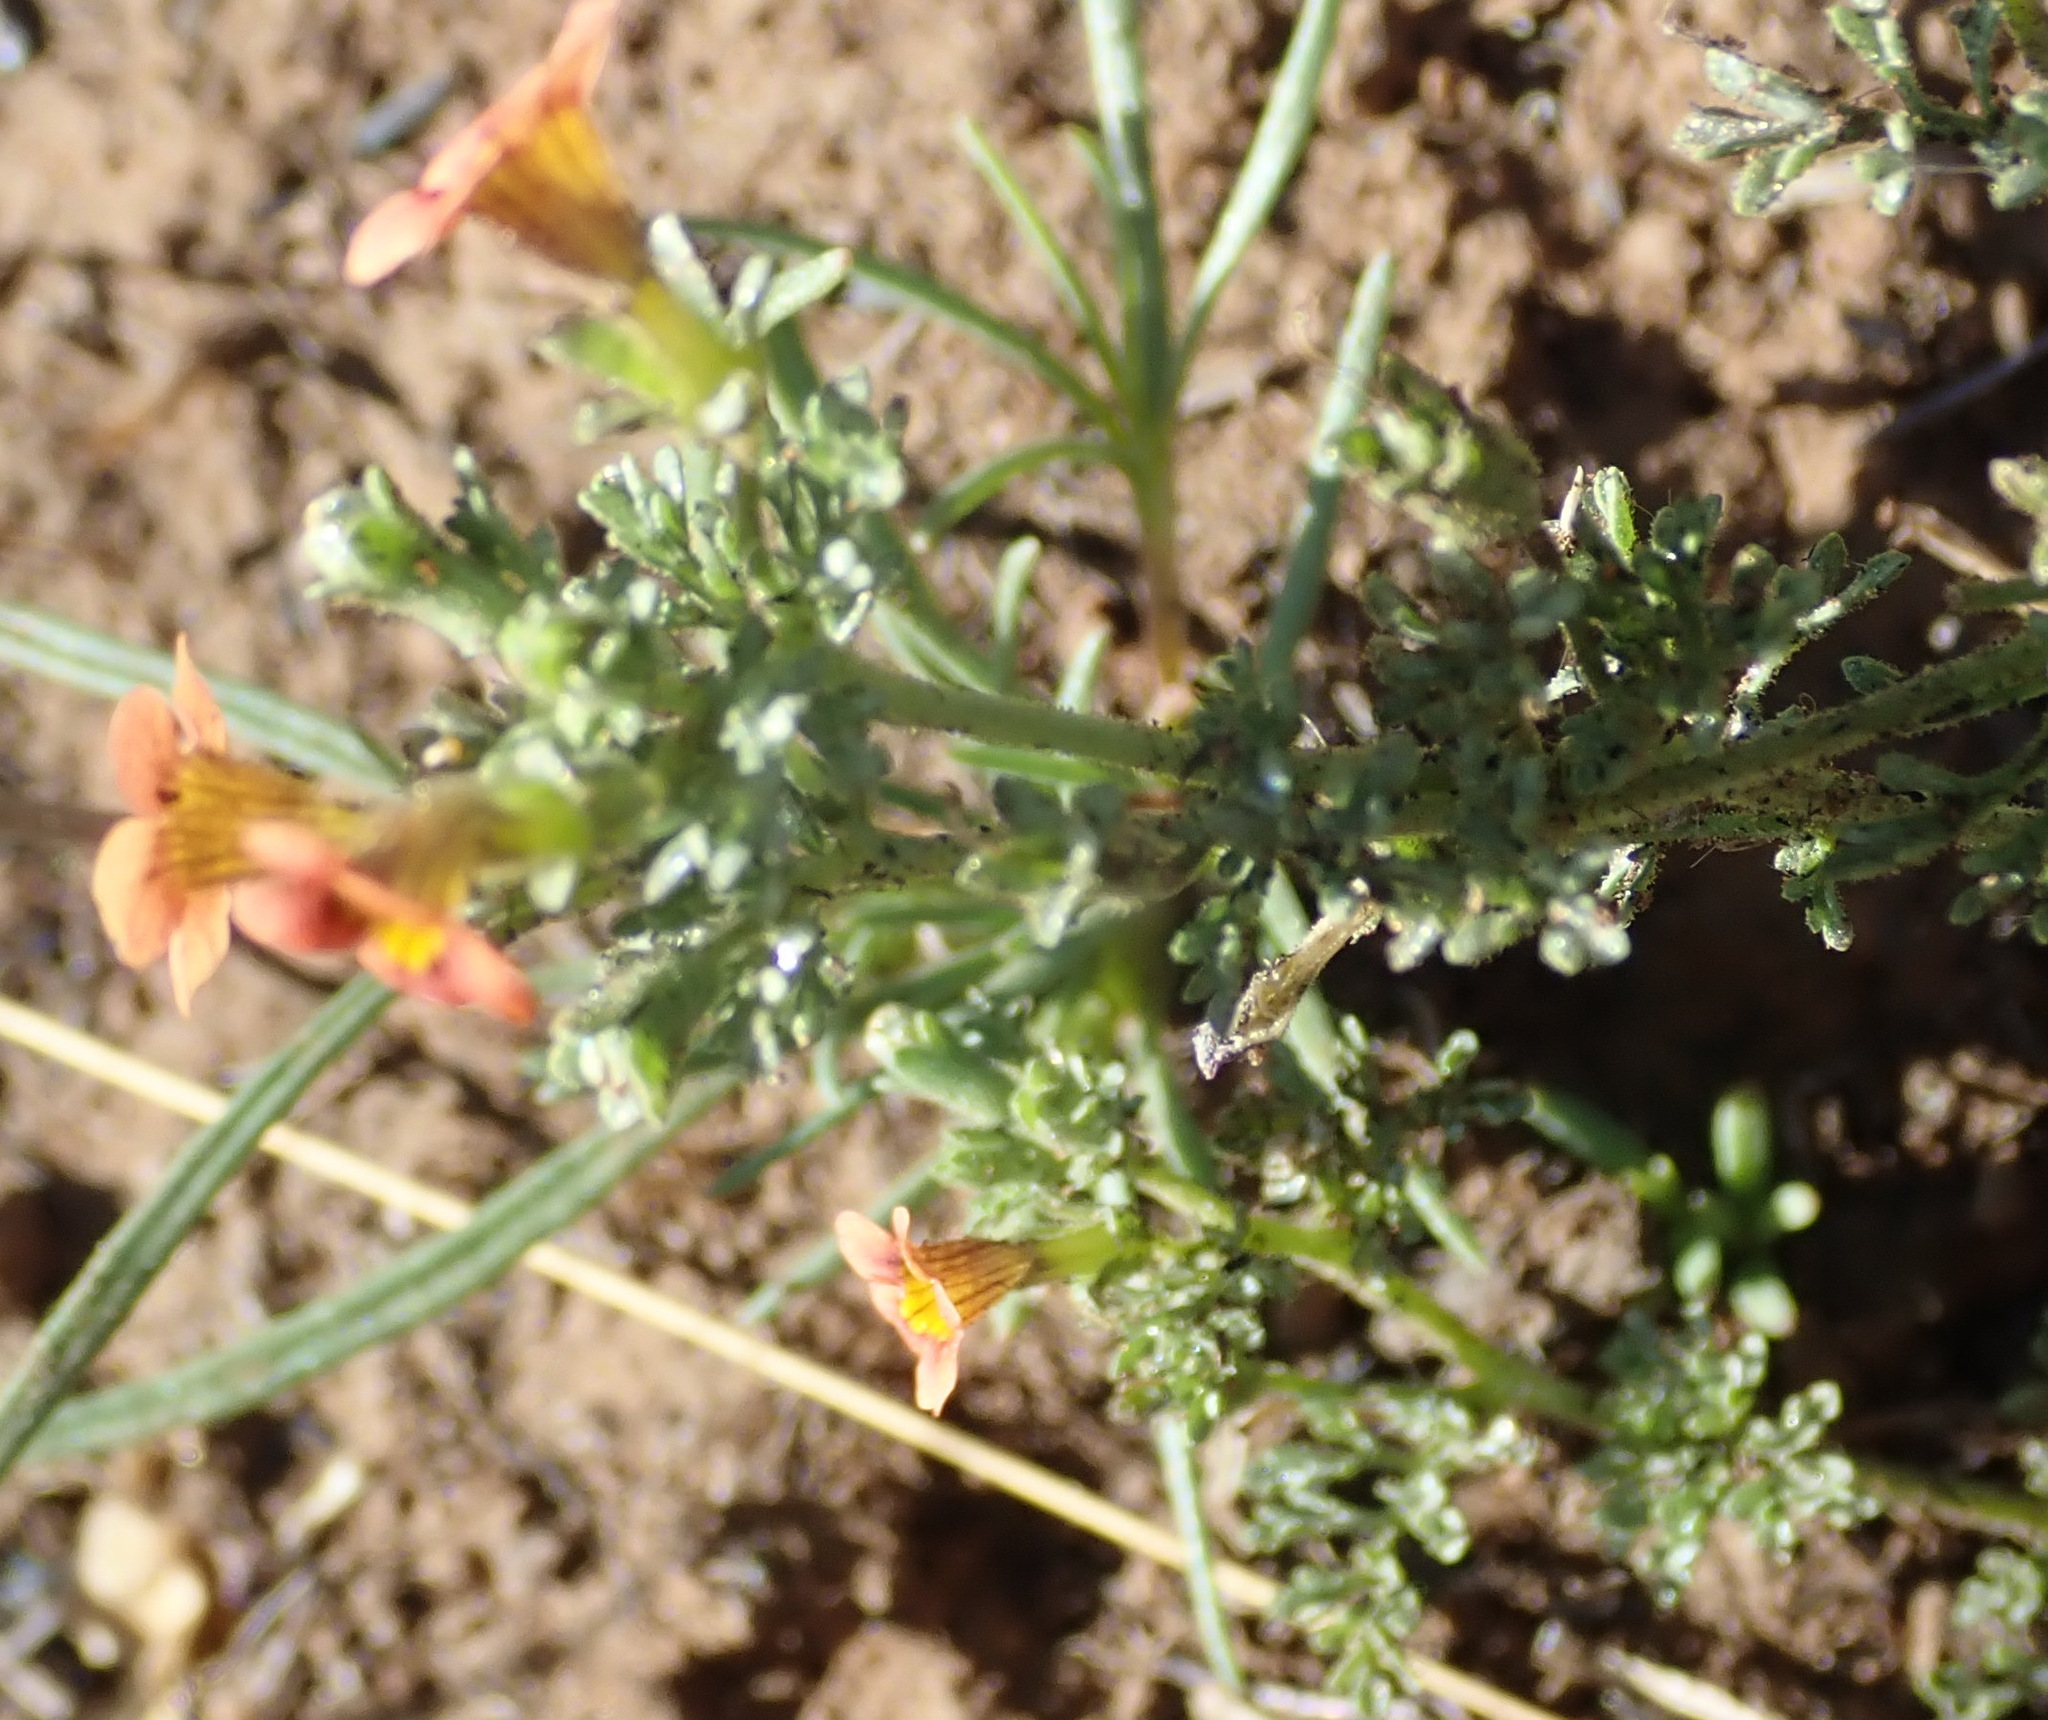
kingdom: Plantae
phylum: Tracheophyta
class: Magnoliopsida
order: Lamiales
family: Scrophulariaceae
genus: Jamesbrittenia
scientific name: Jamesbrittenia aurantiaca
